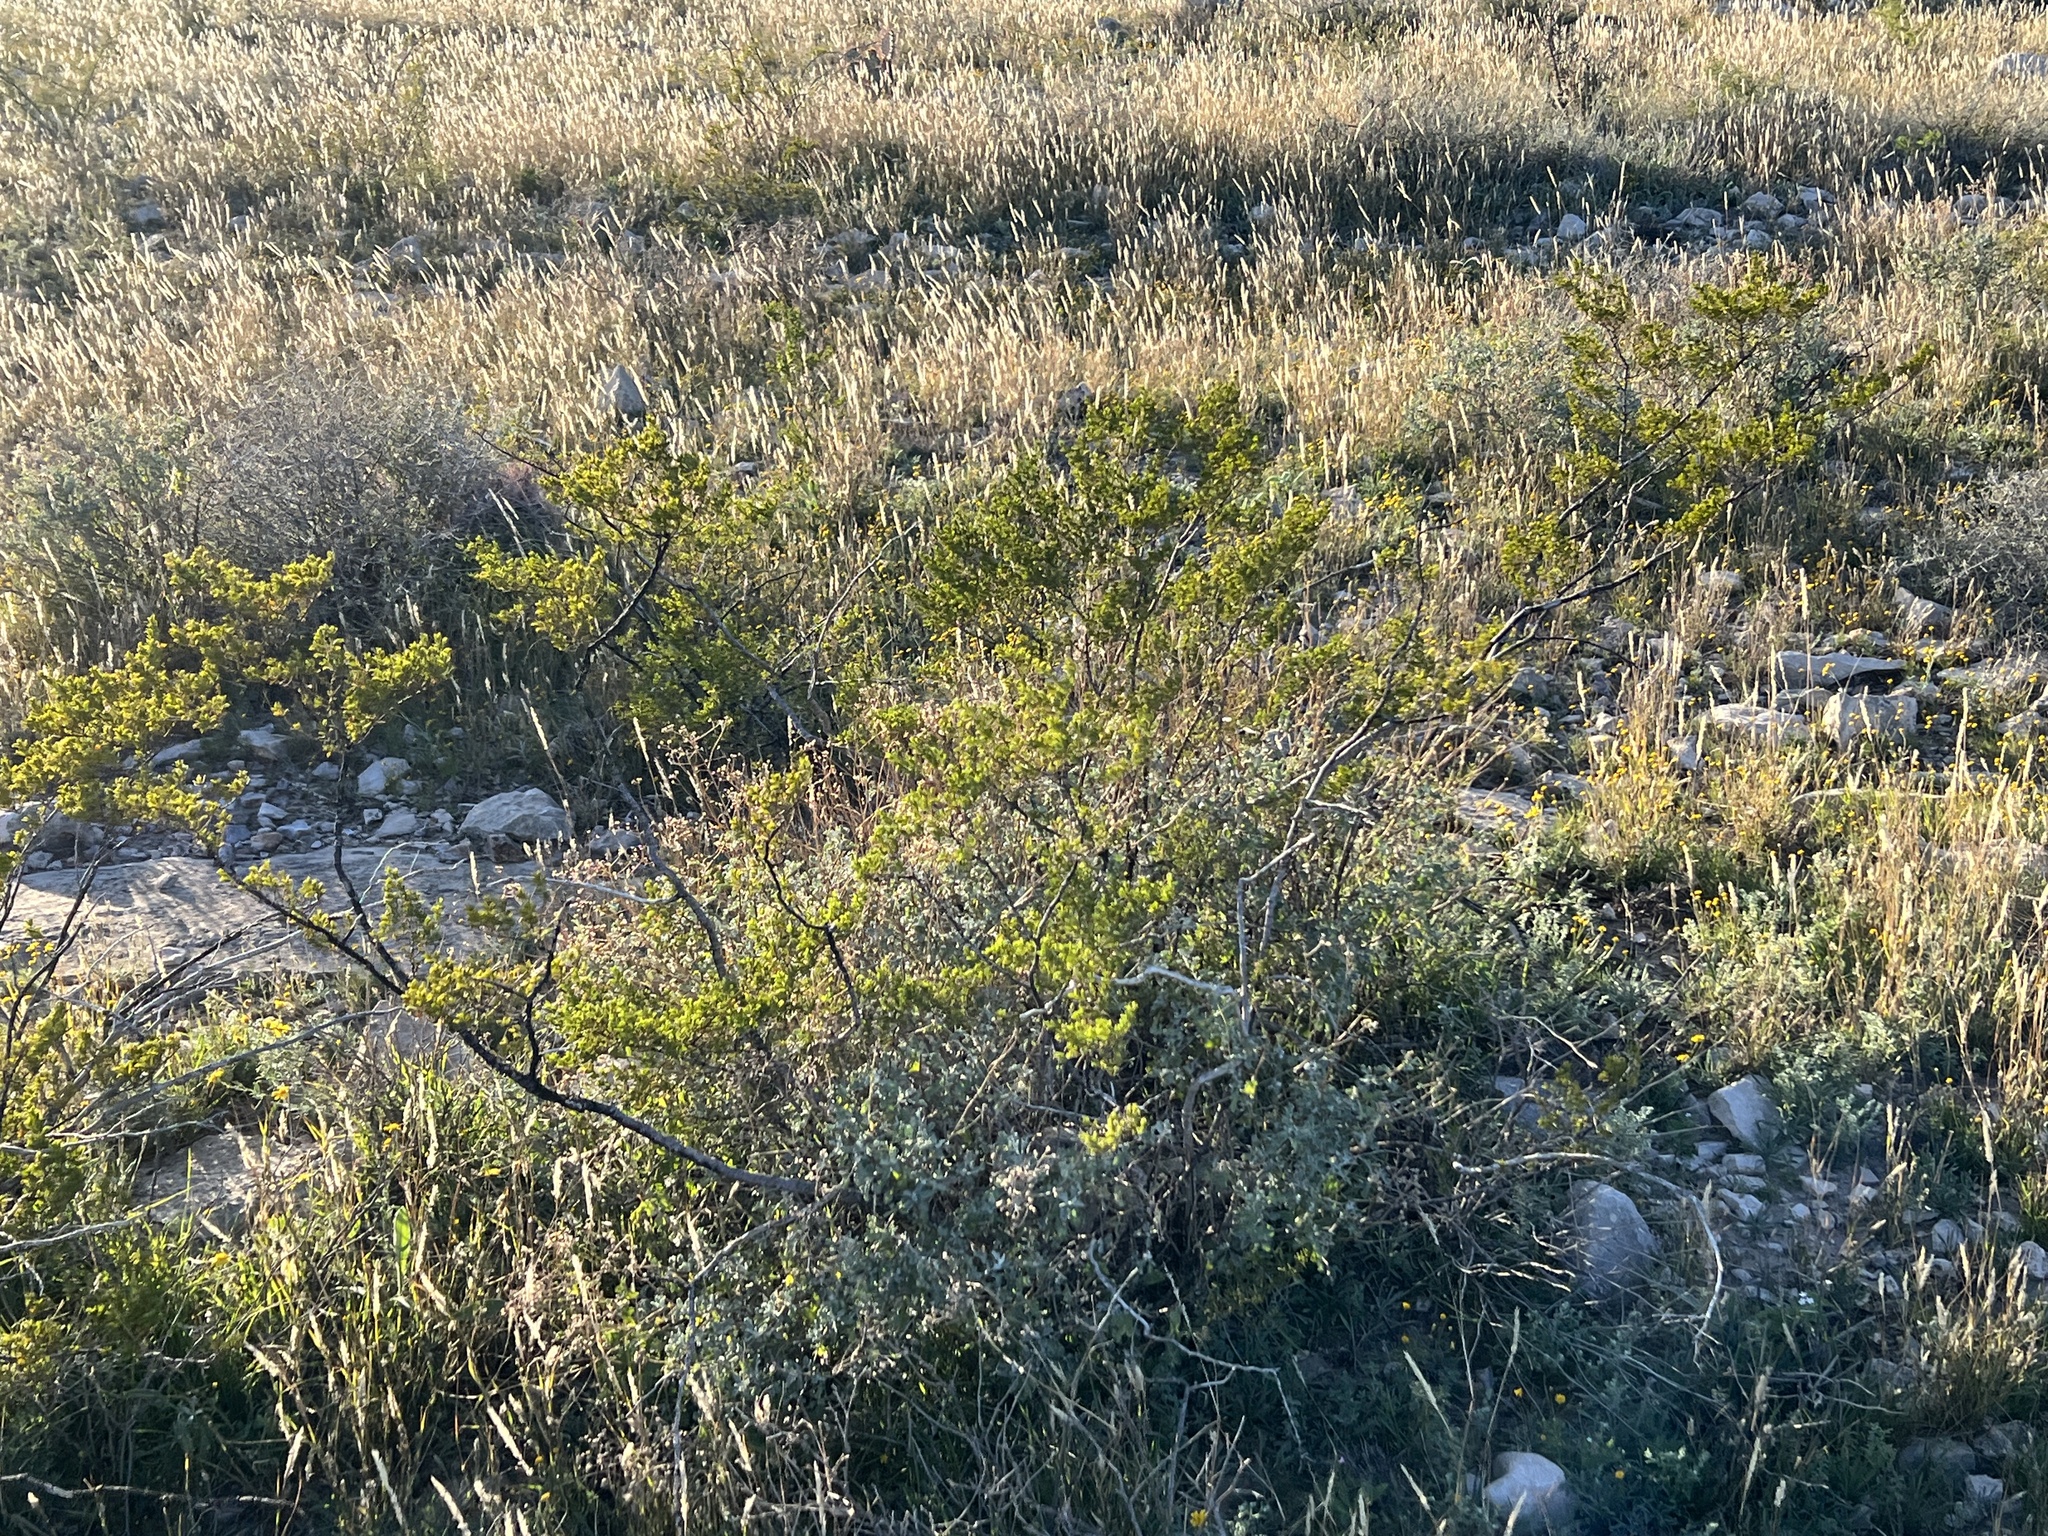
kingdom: Plantae
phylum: Tracheophyta
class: Magnoliopsida
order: Zygophyllales
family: Zygophyllaceae
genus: Larrea
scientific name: Larrea tridentata
